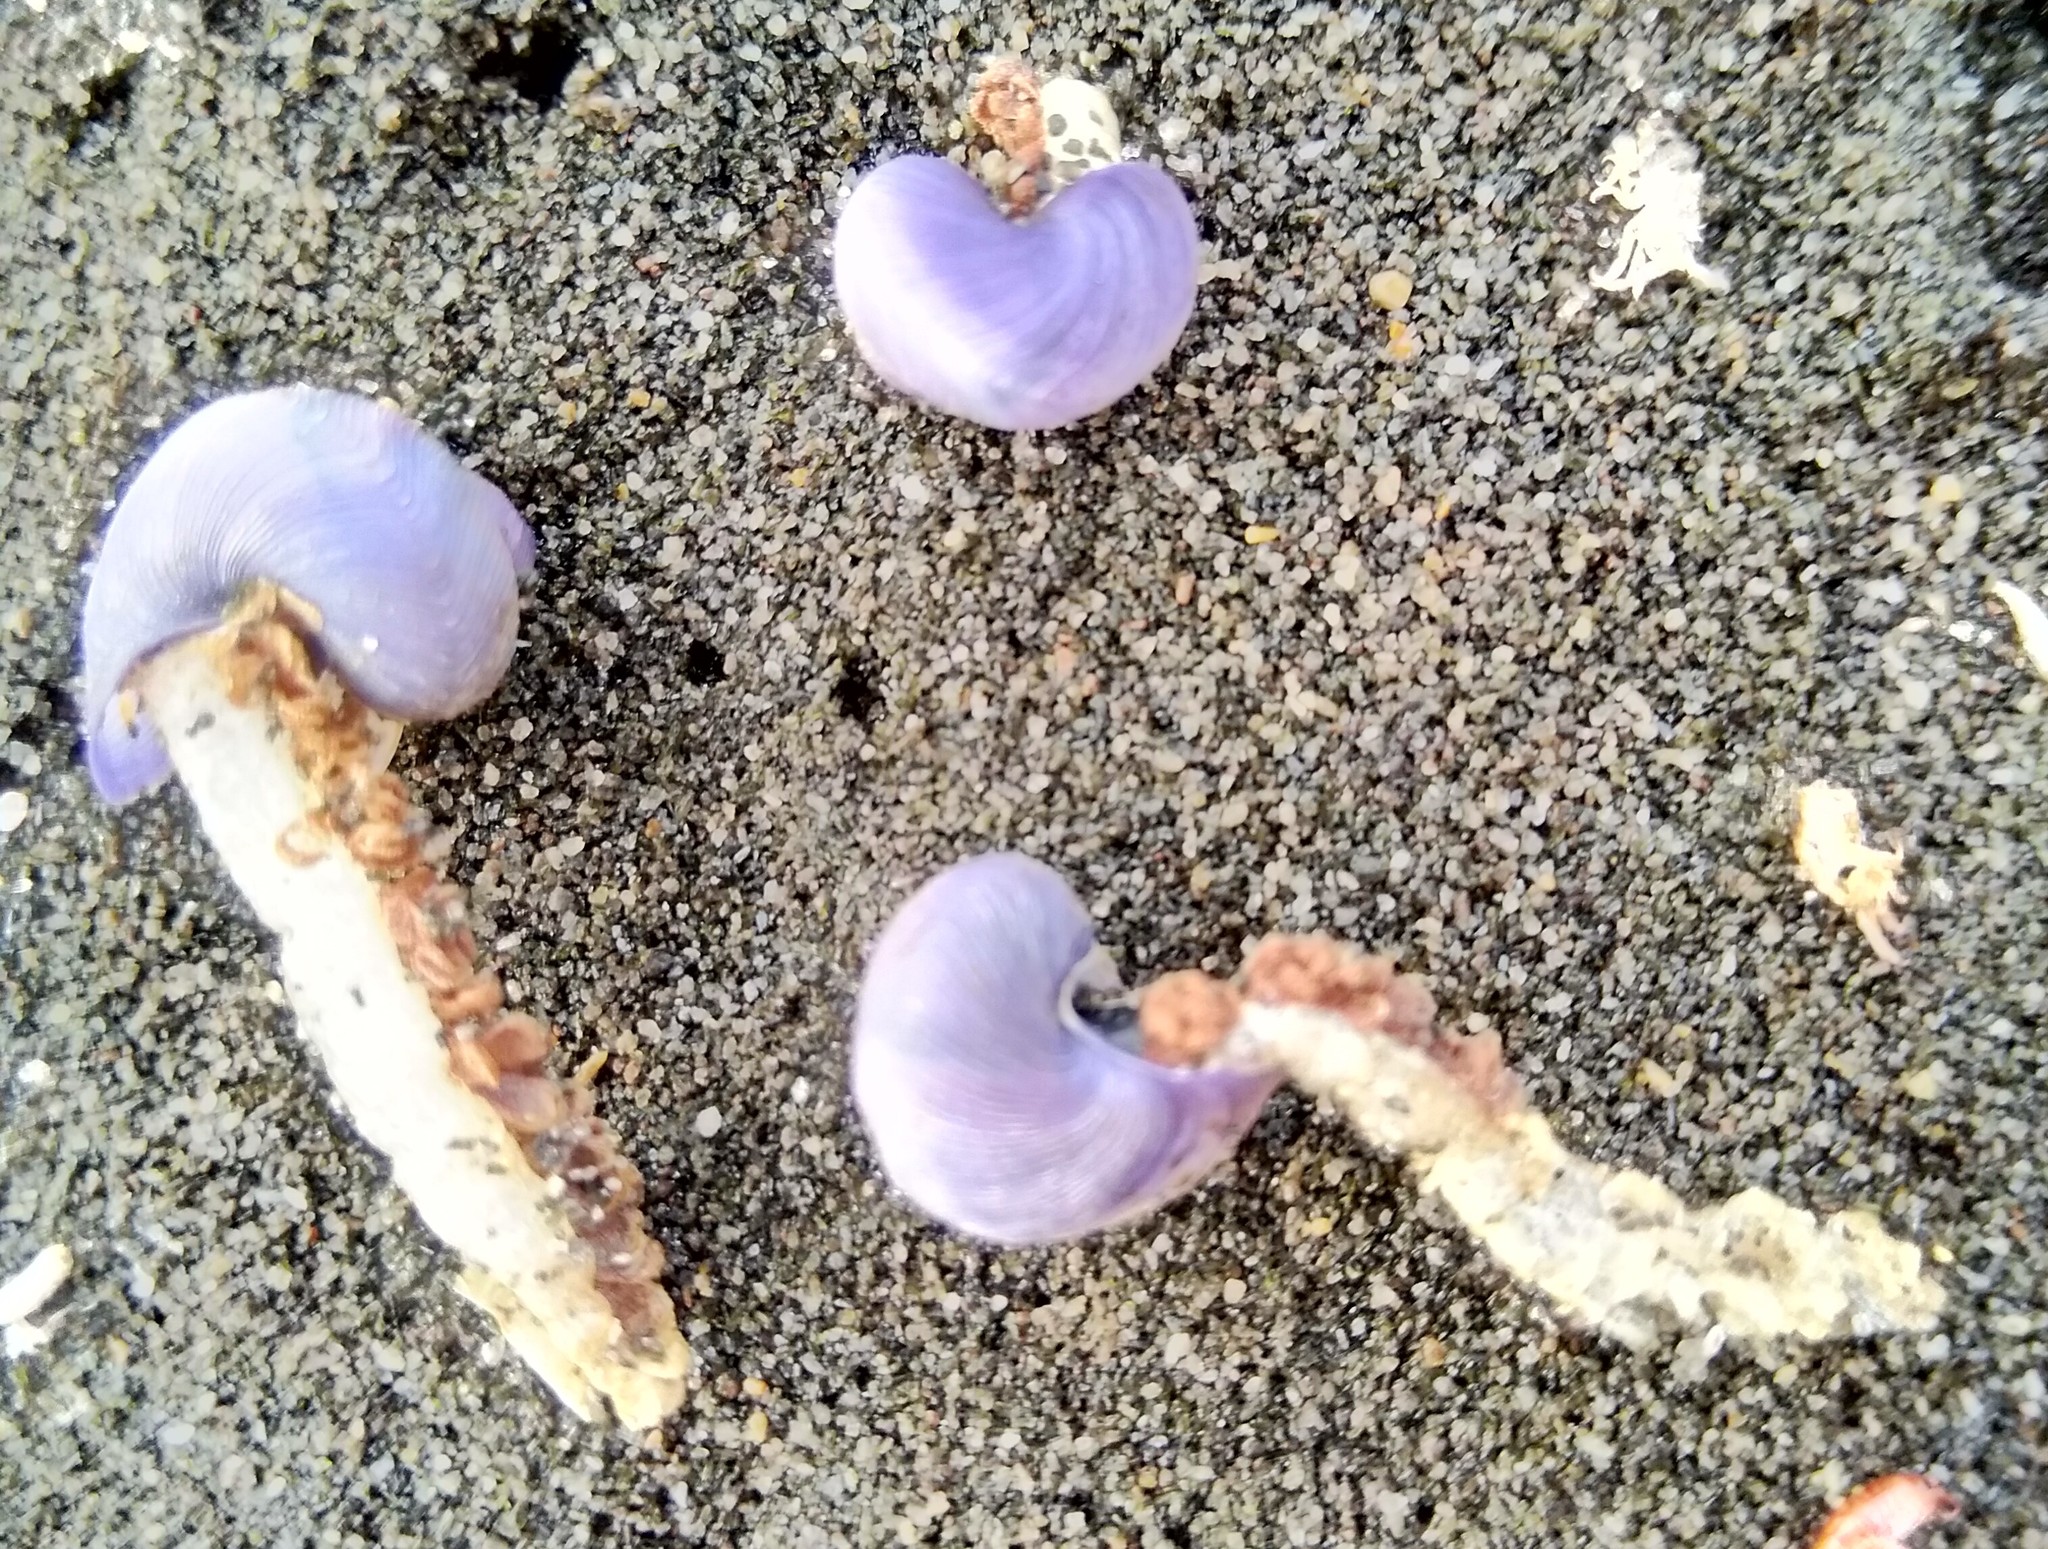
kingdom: Animalia
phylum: Mollusca
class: Gastropoda
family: Epitoniidae
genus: Janthina
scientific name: Janthina exigua
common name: Dwarf janthina
